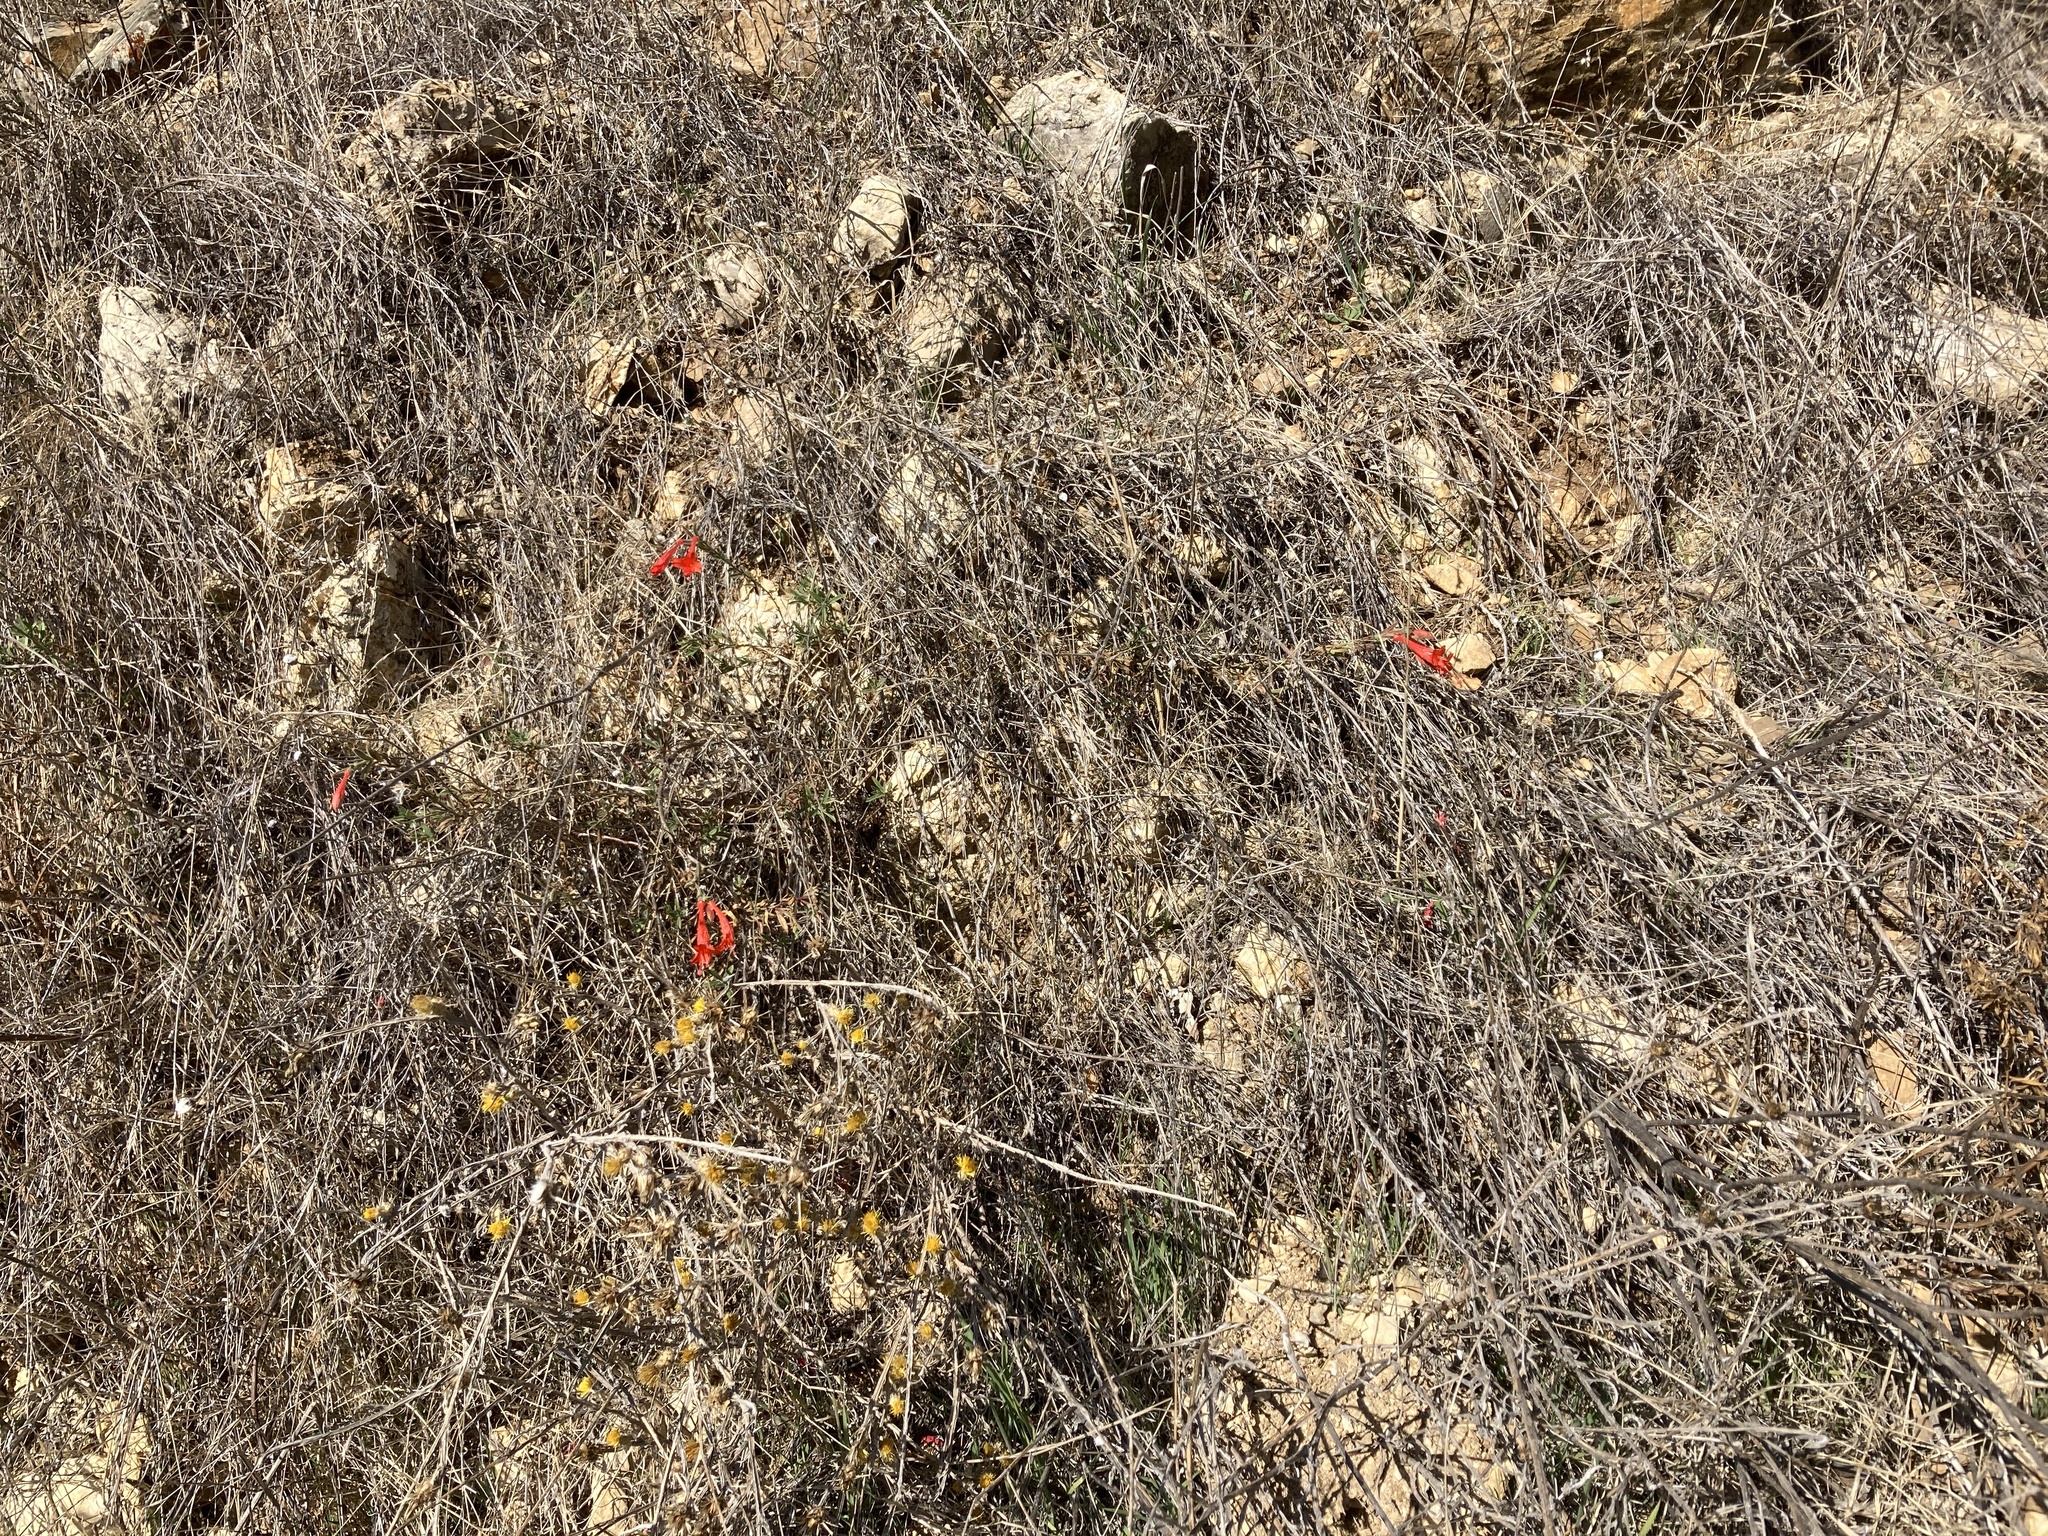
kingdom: Plantae
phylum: Tracheophyta
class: Magnoliopsida
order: Myrtales
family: Onagraceae
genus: Epilobium
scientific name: Epilobium canum
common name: California-fuchsia
